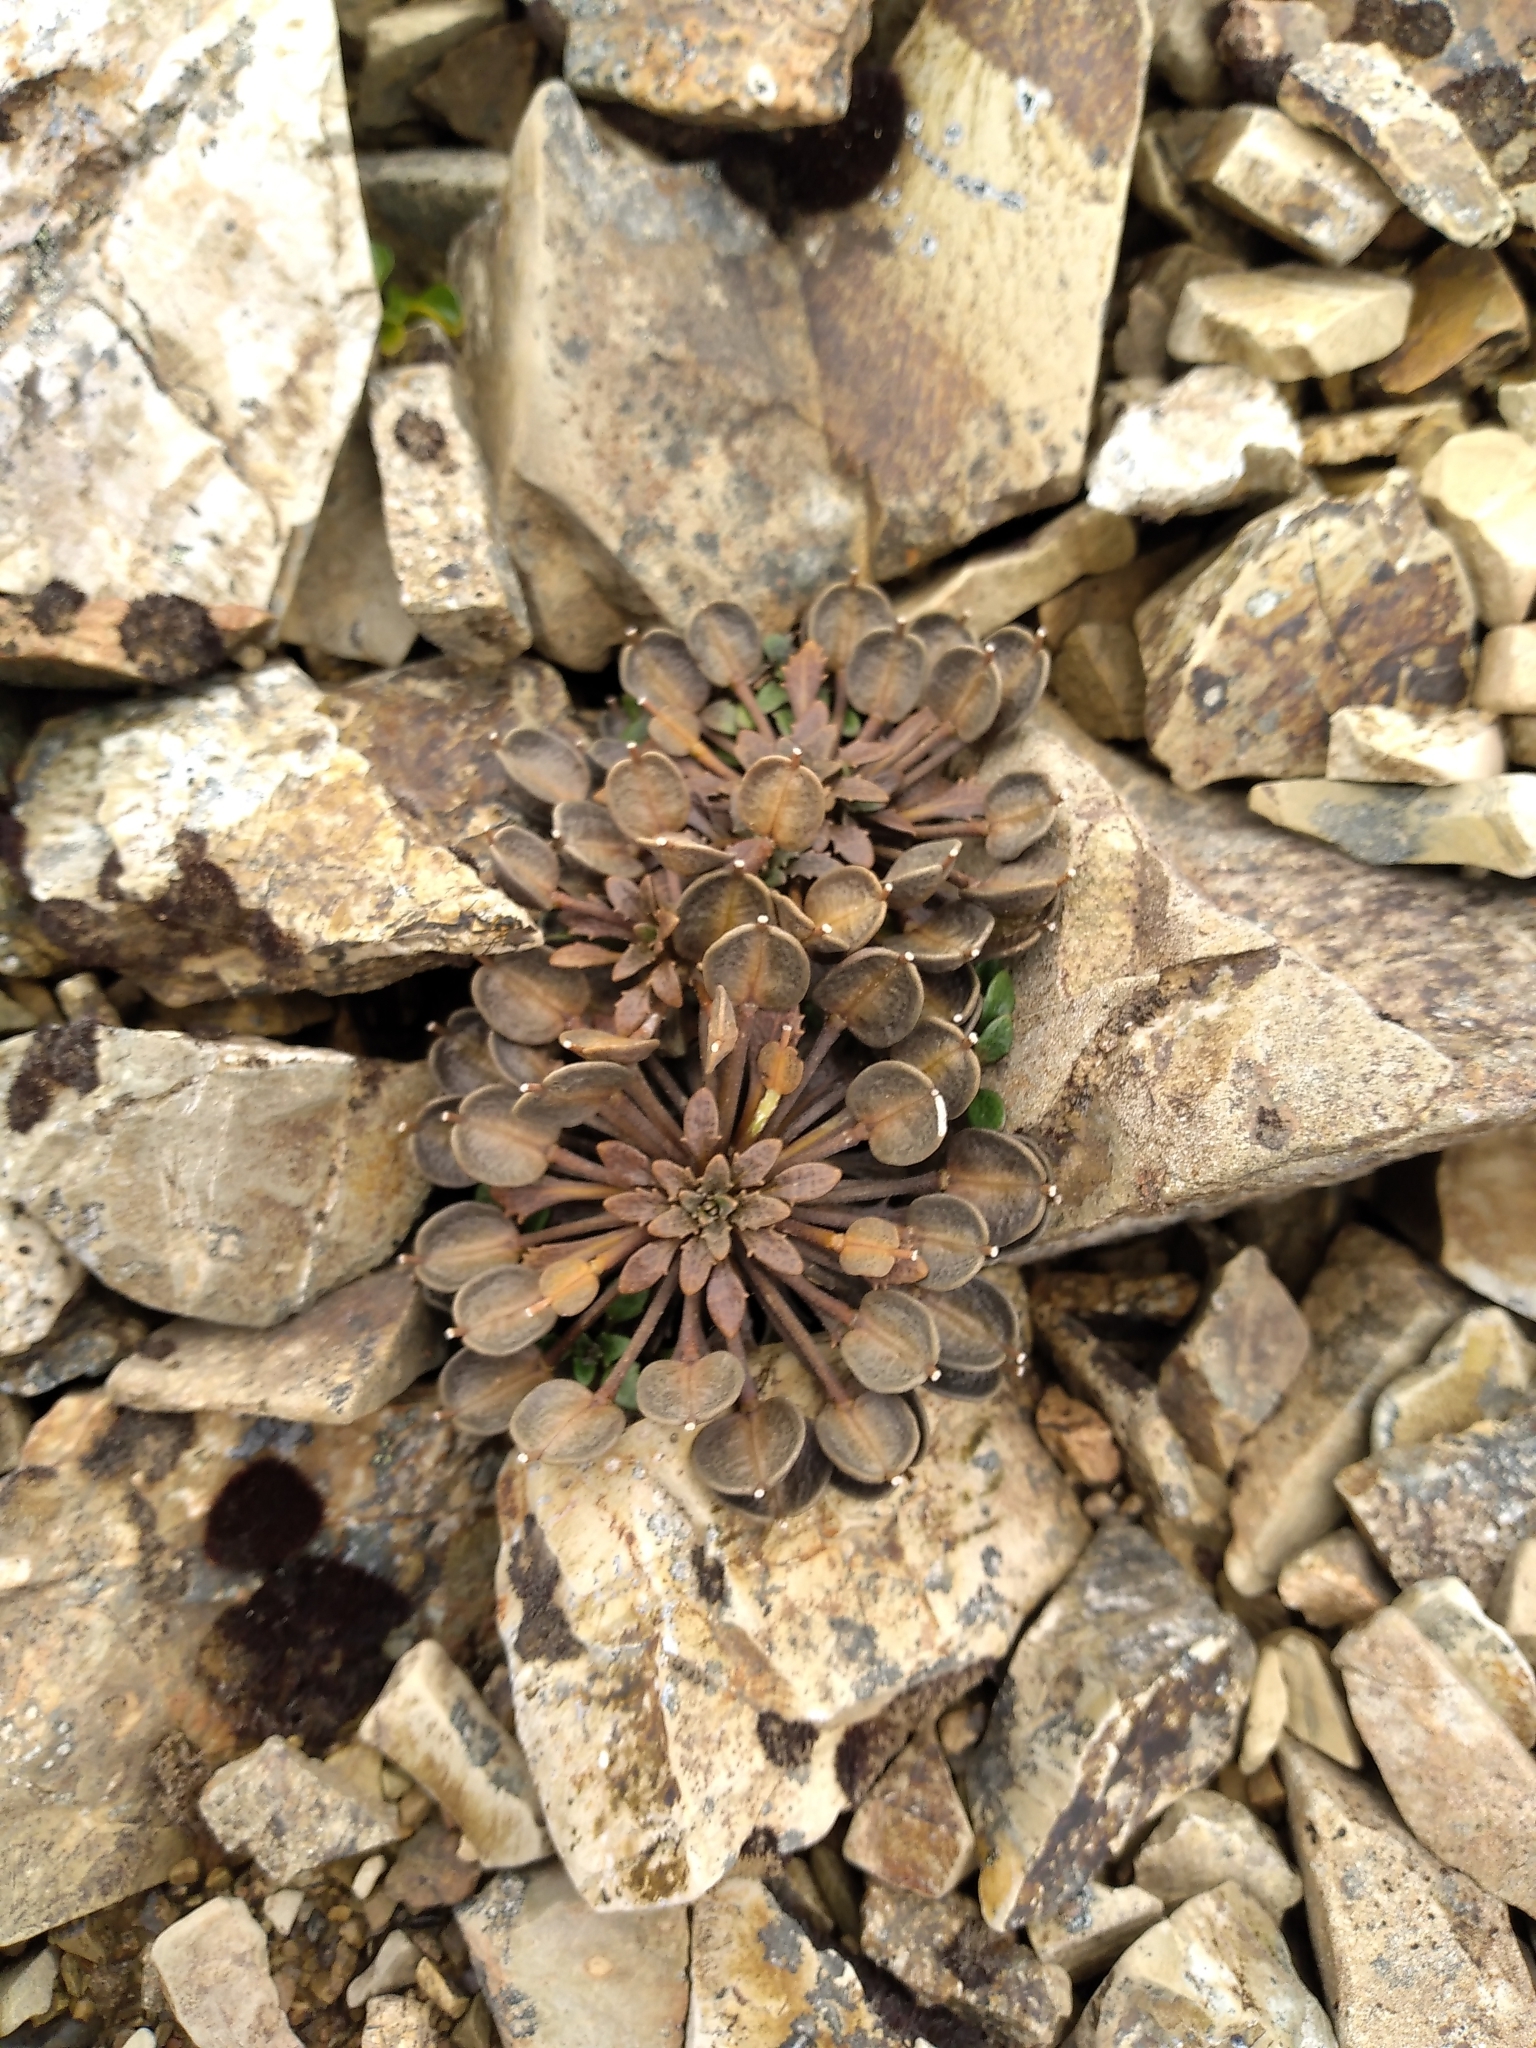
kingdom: Plantae
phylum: Tracheophyta
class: Magnoliopsida
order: Brassicales
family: Brassicaceae
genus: Notothlaspi
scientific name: Notothlaspi australe
